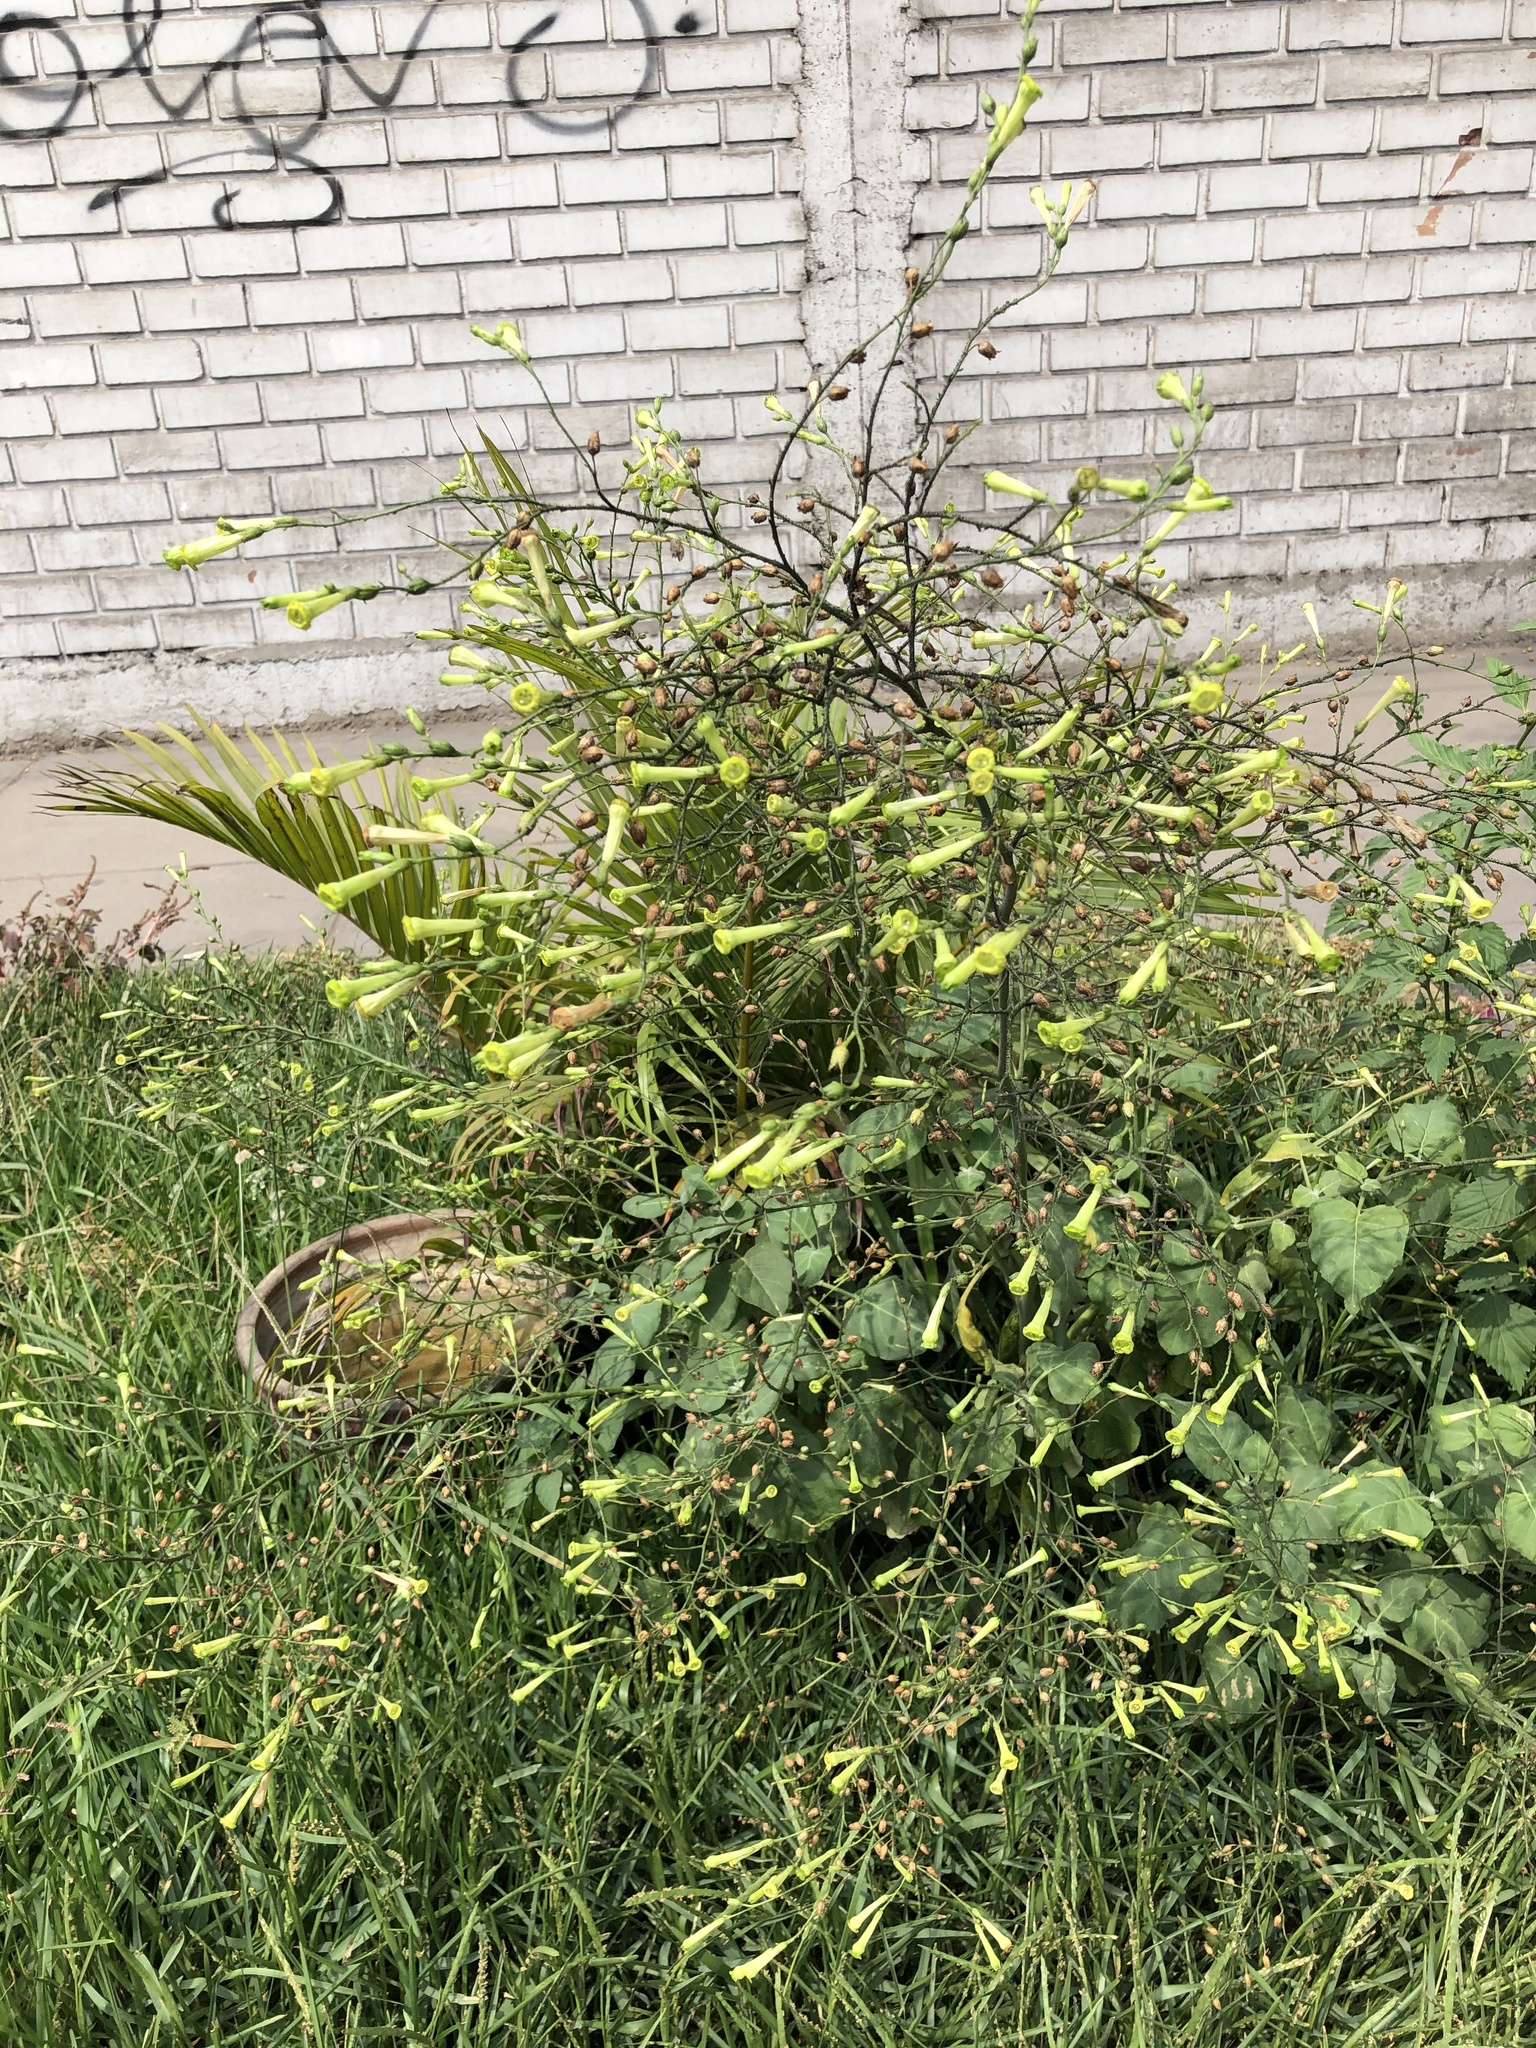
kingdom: Plantae
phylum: Tracheophyta
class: Magnoliopsida
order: Solanales
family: Solanaceae
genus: Nicotiana
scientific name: Nicotiana paniculata
